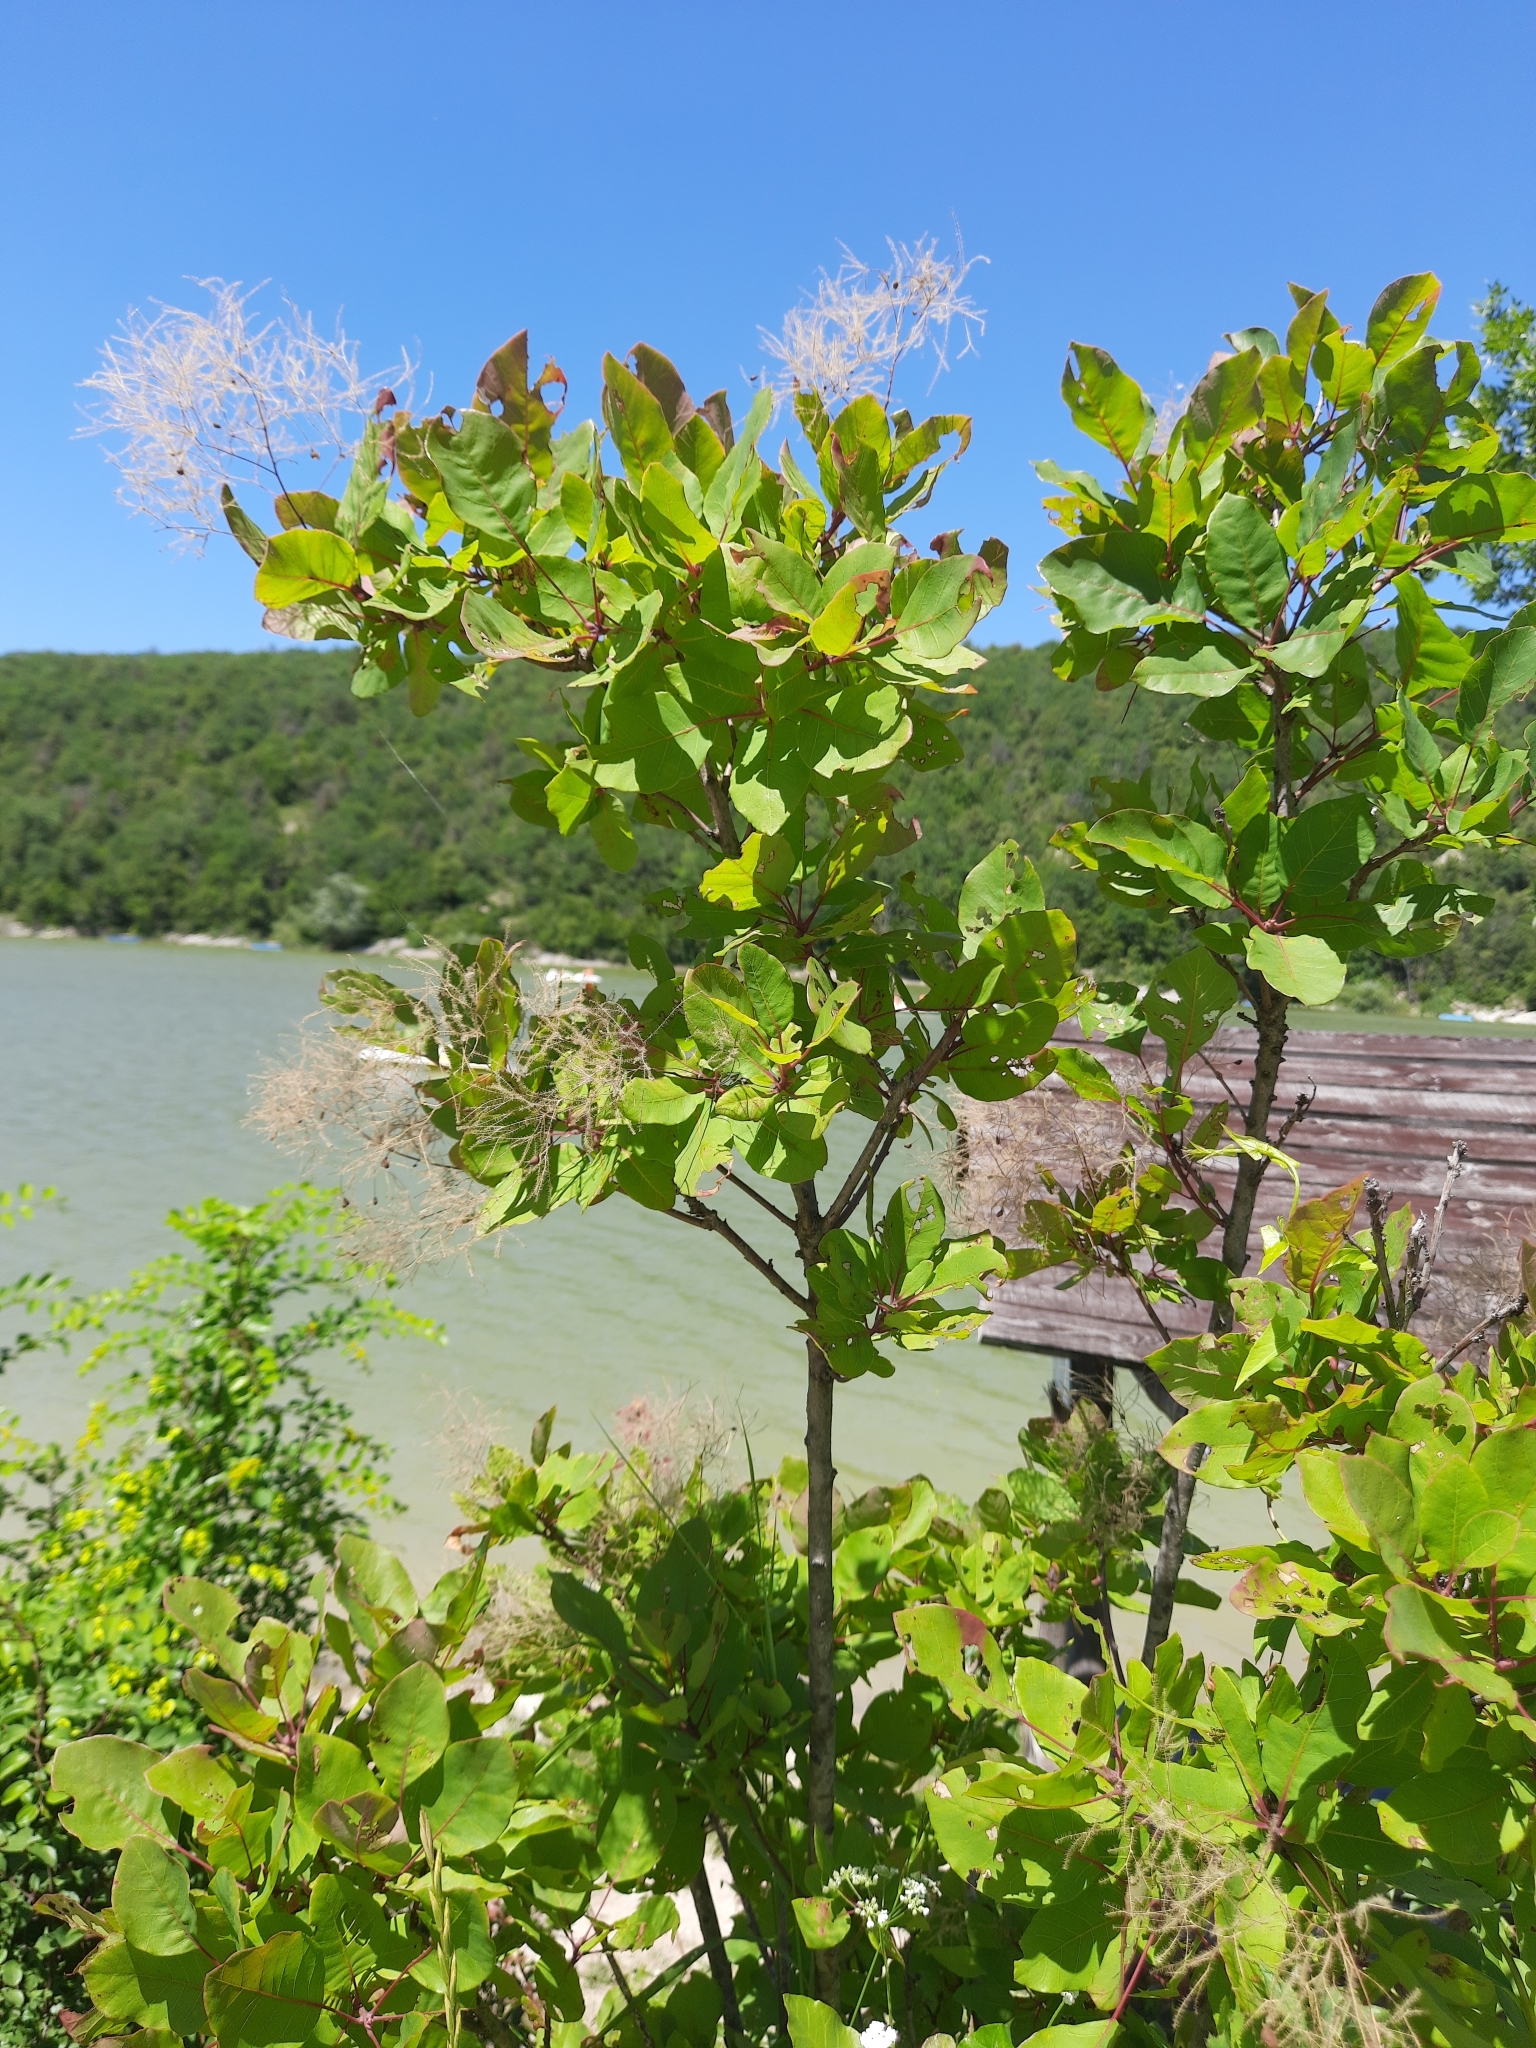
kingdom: Plantae
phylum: Tracheophyta
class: Magnoliopsida
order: Sapindales
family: Anacardiaceae
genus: Cotinus
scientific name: Cotinus coggygria
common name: Smoke-tree
